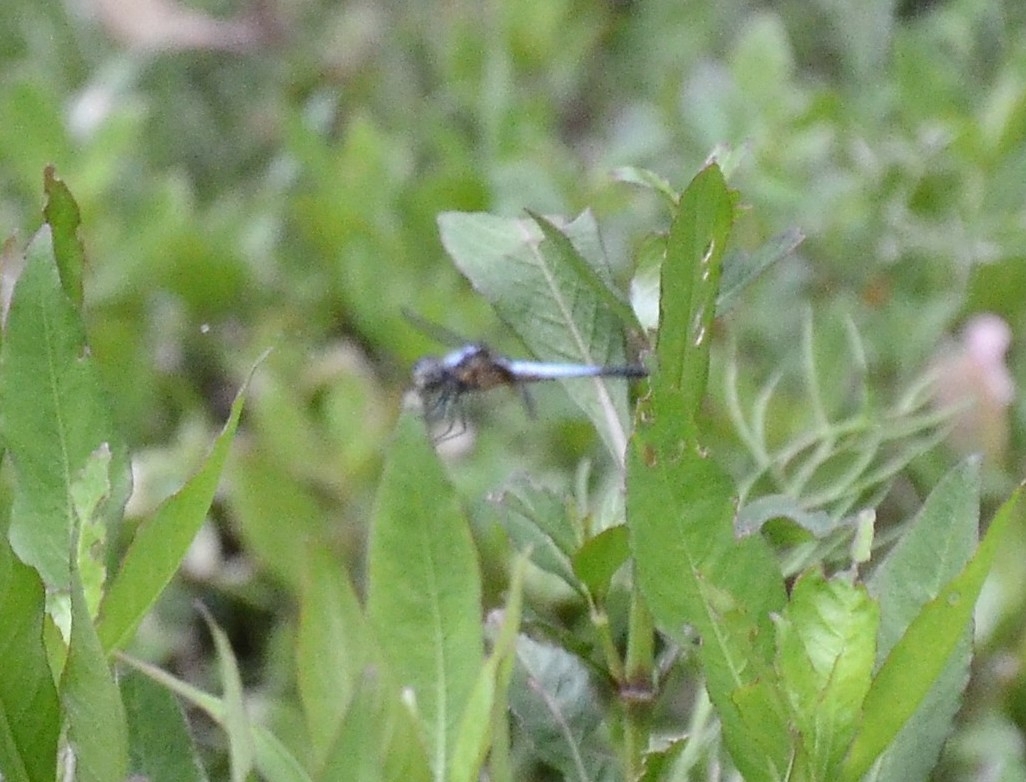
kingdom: Animalia
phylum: Arthropoda
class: Insecta
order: Odonata
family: Libellulidae
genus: Brachydiplax
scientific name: Brachydiplax chalybea
